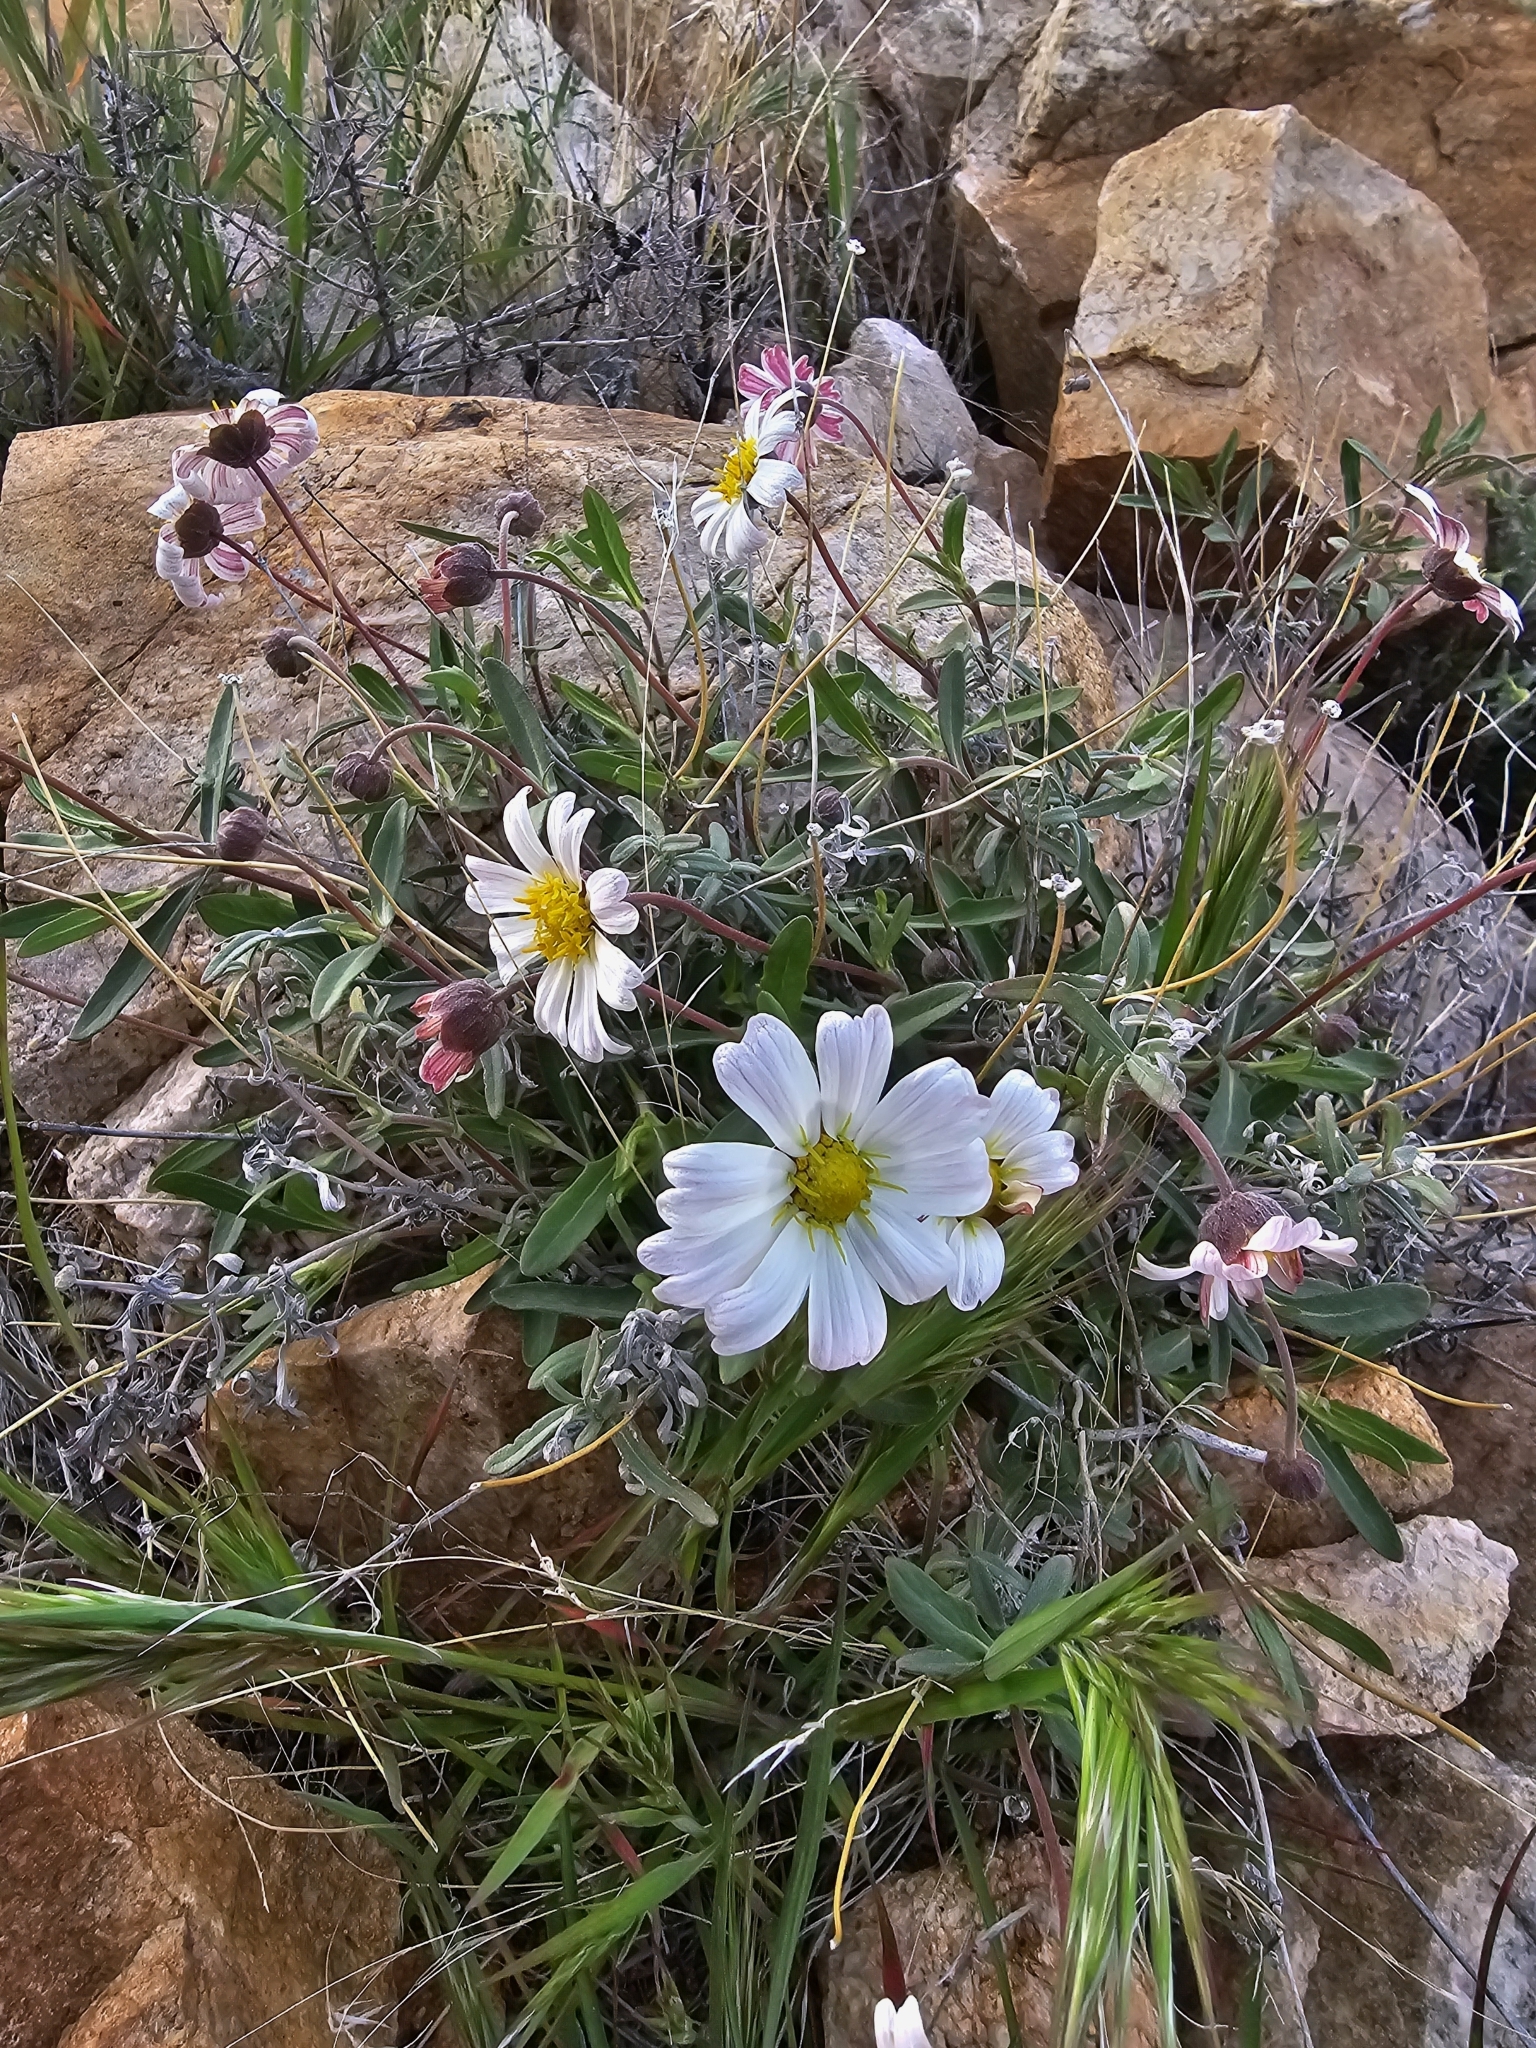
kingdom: Plantae
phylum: Tracheophyta
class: Magnoliopsida
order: Asterales
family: Asteraceae
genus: Melampodium
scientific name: Melampodium leucanthum
